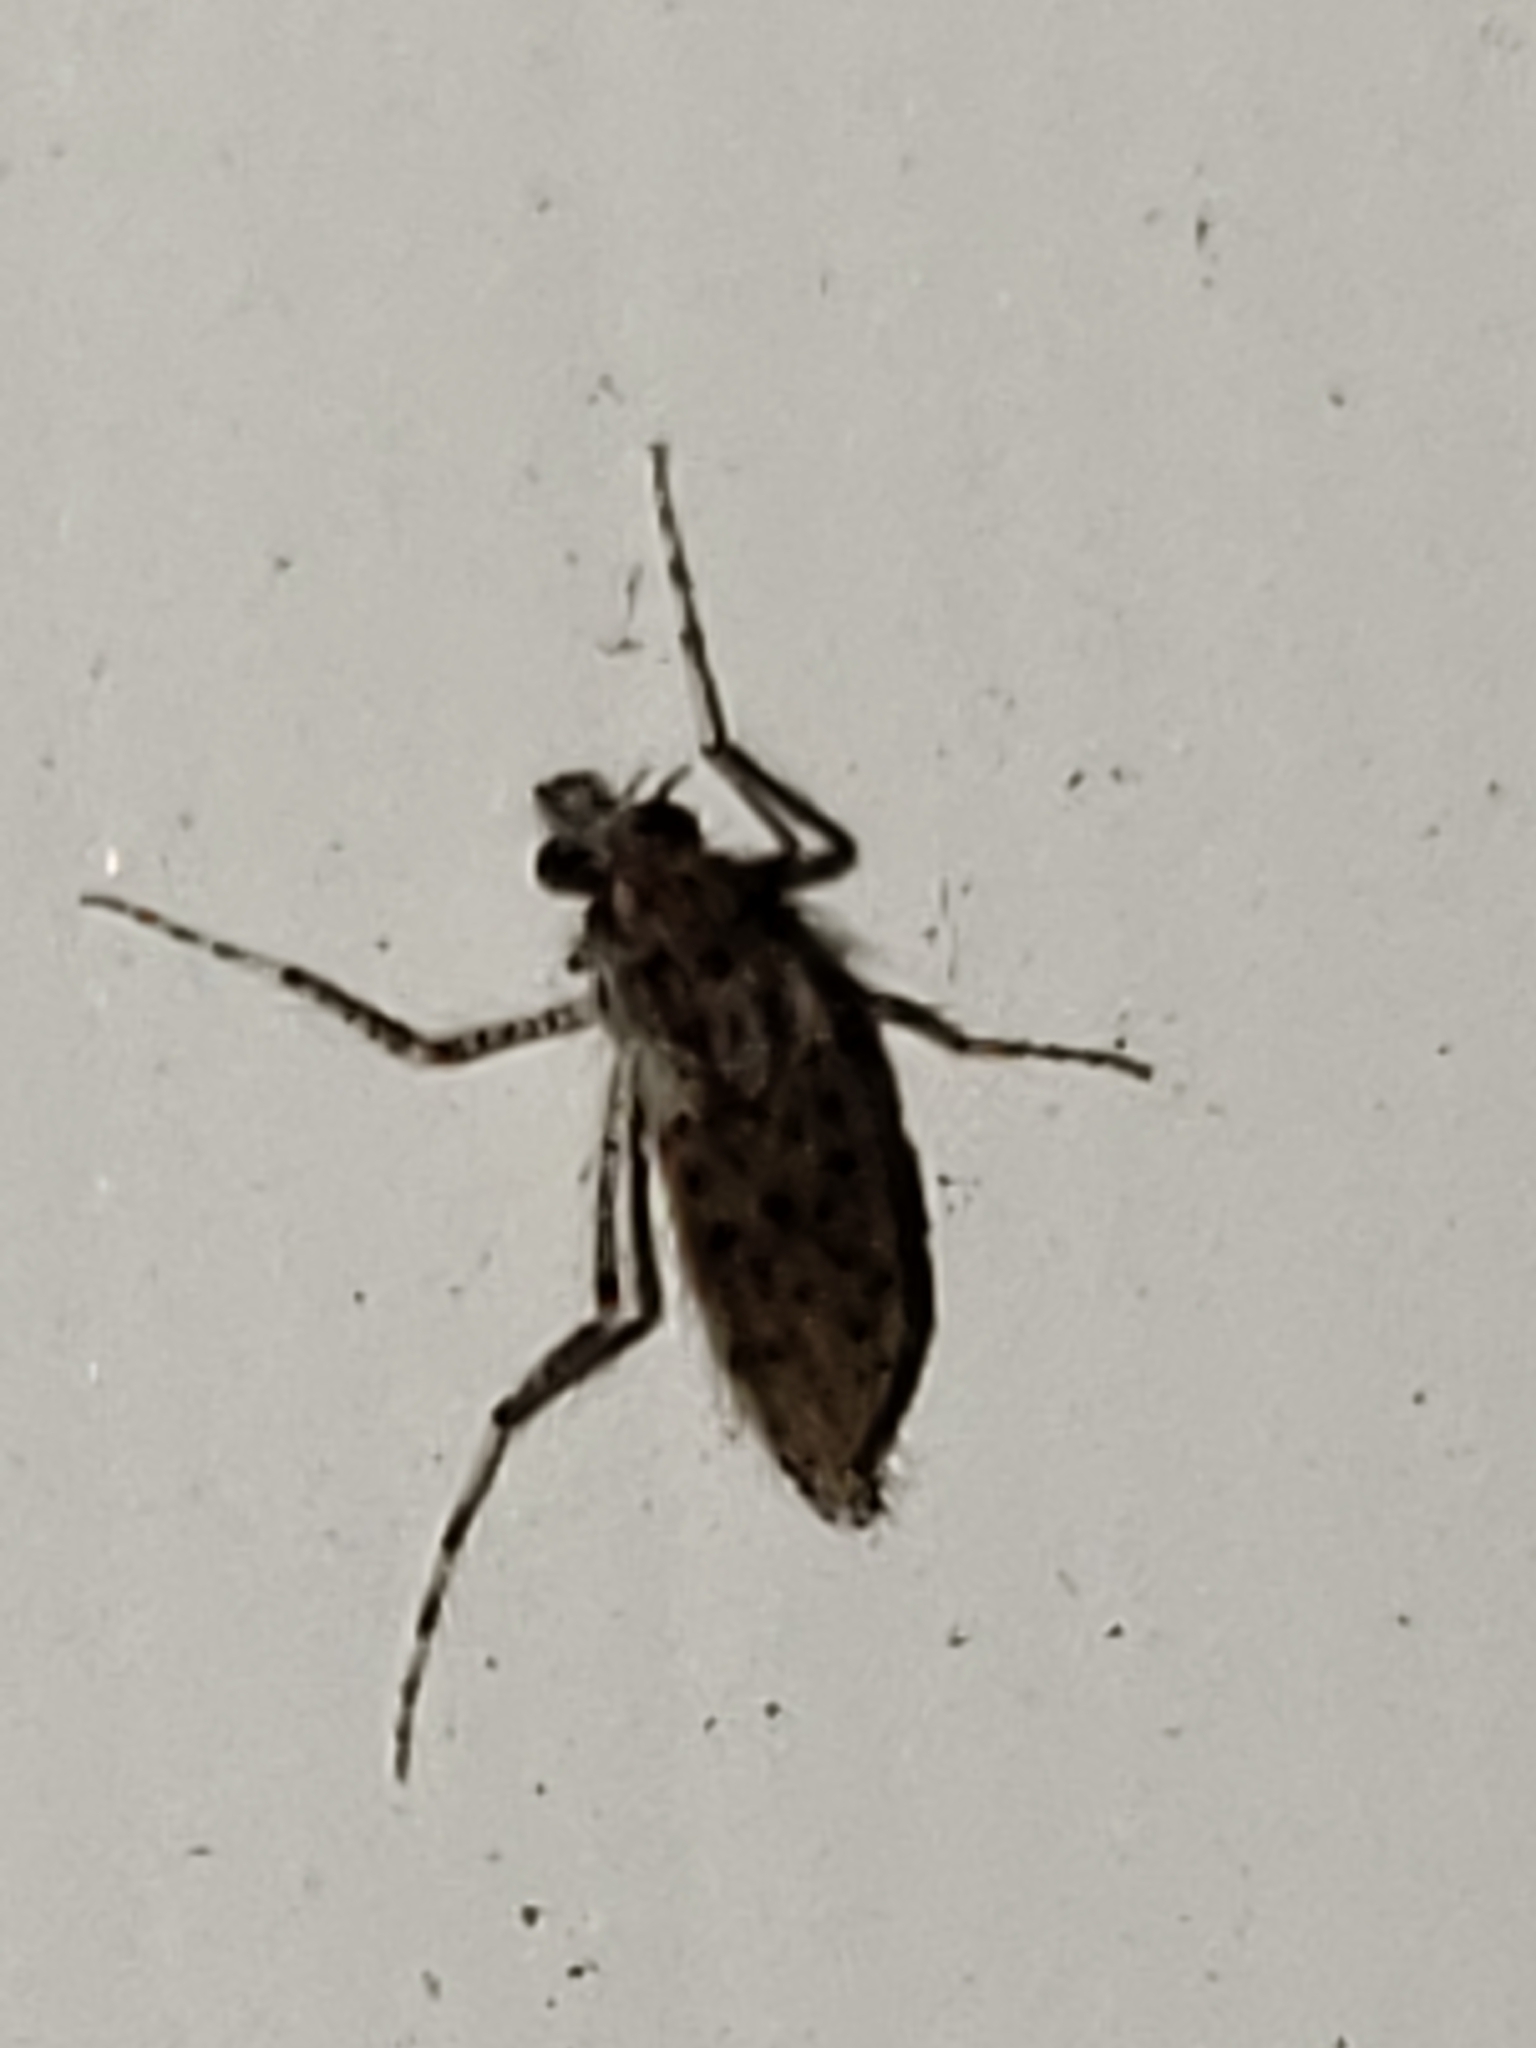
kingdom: Animalia
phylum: Arthropoda
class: Insecta
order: Diptera
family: Chaoboridae
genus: Chaoborus
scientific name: Chaoborus punctipennis
